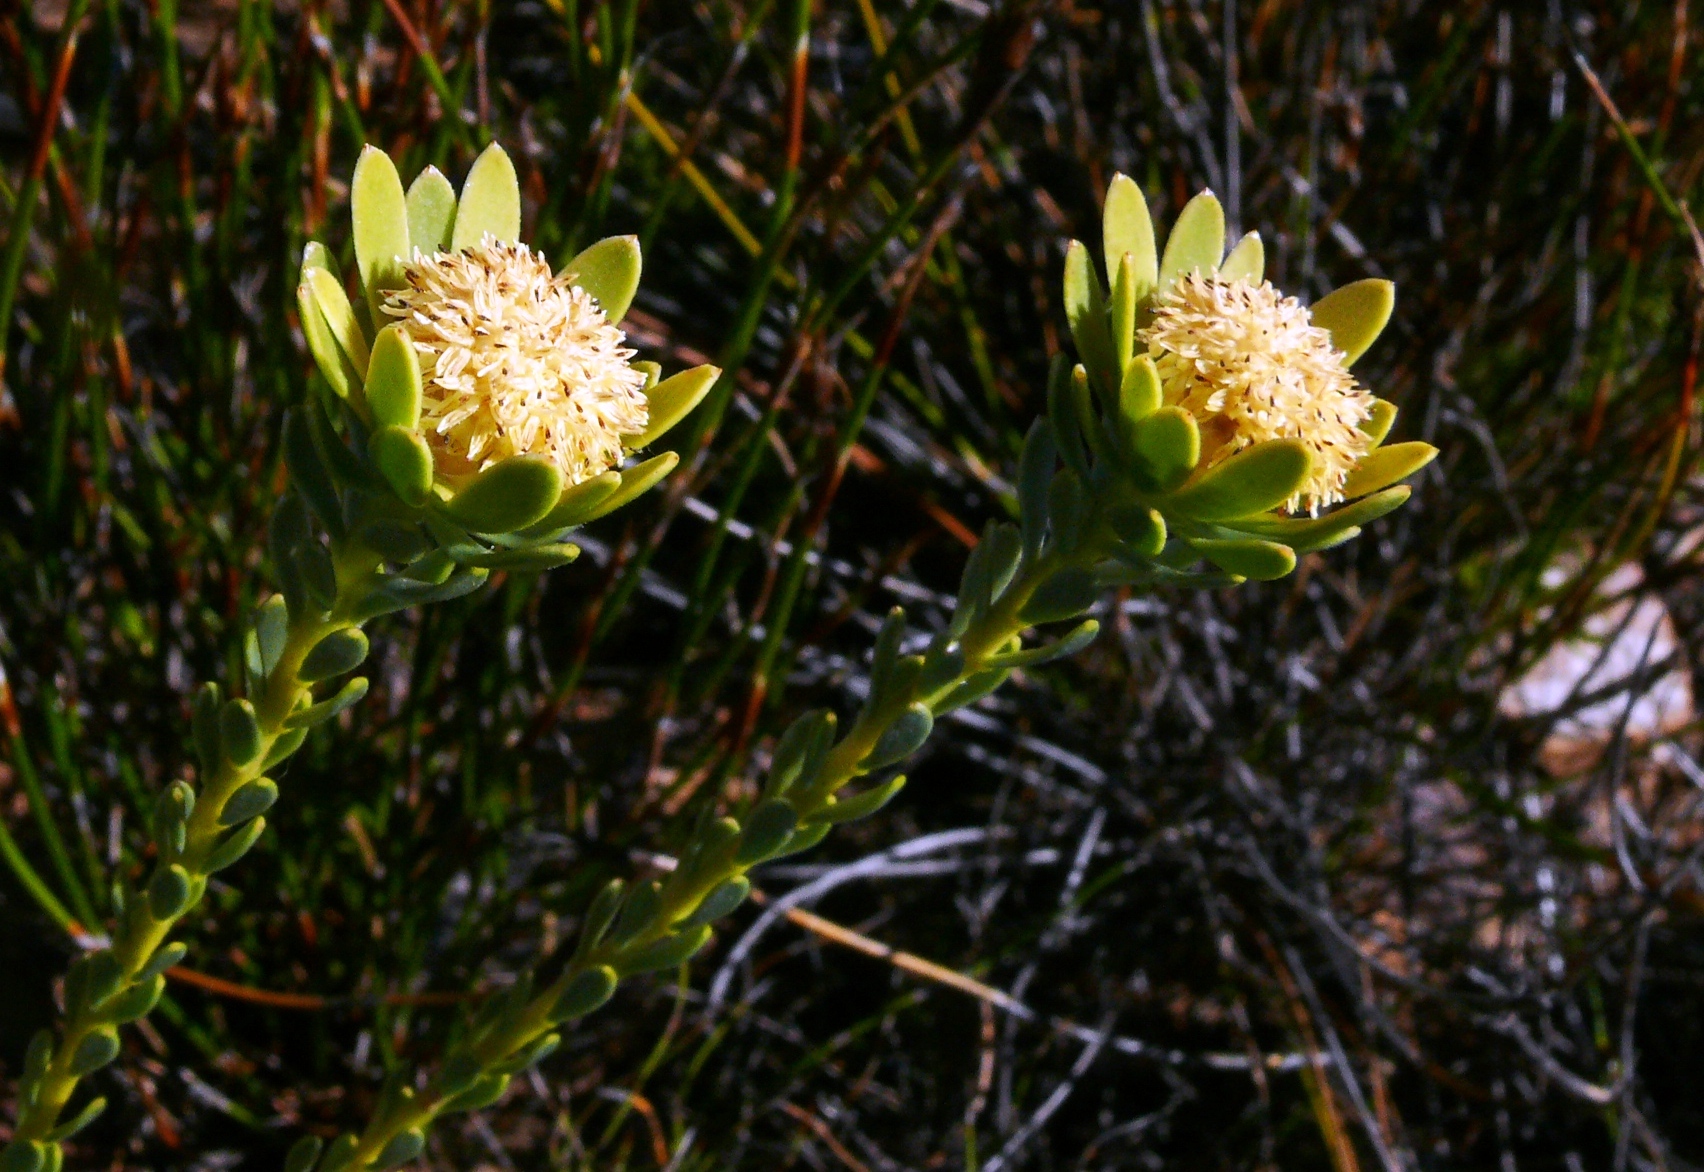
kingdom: Plantae
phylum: Tracheophyta
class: Magnoliopsida
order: Proteales
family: Proteaceae
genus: Leucadendron
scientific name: Leucadendron nitidum
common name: Bokkeveld conebush
